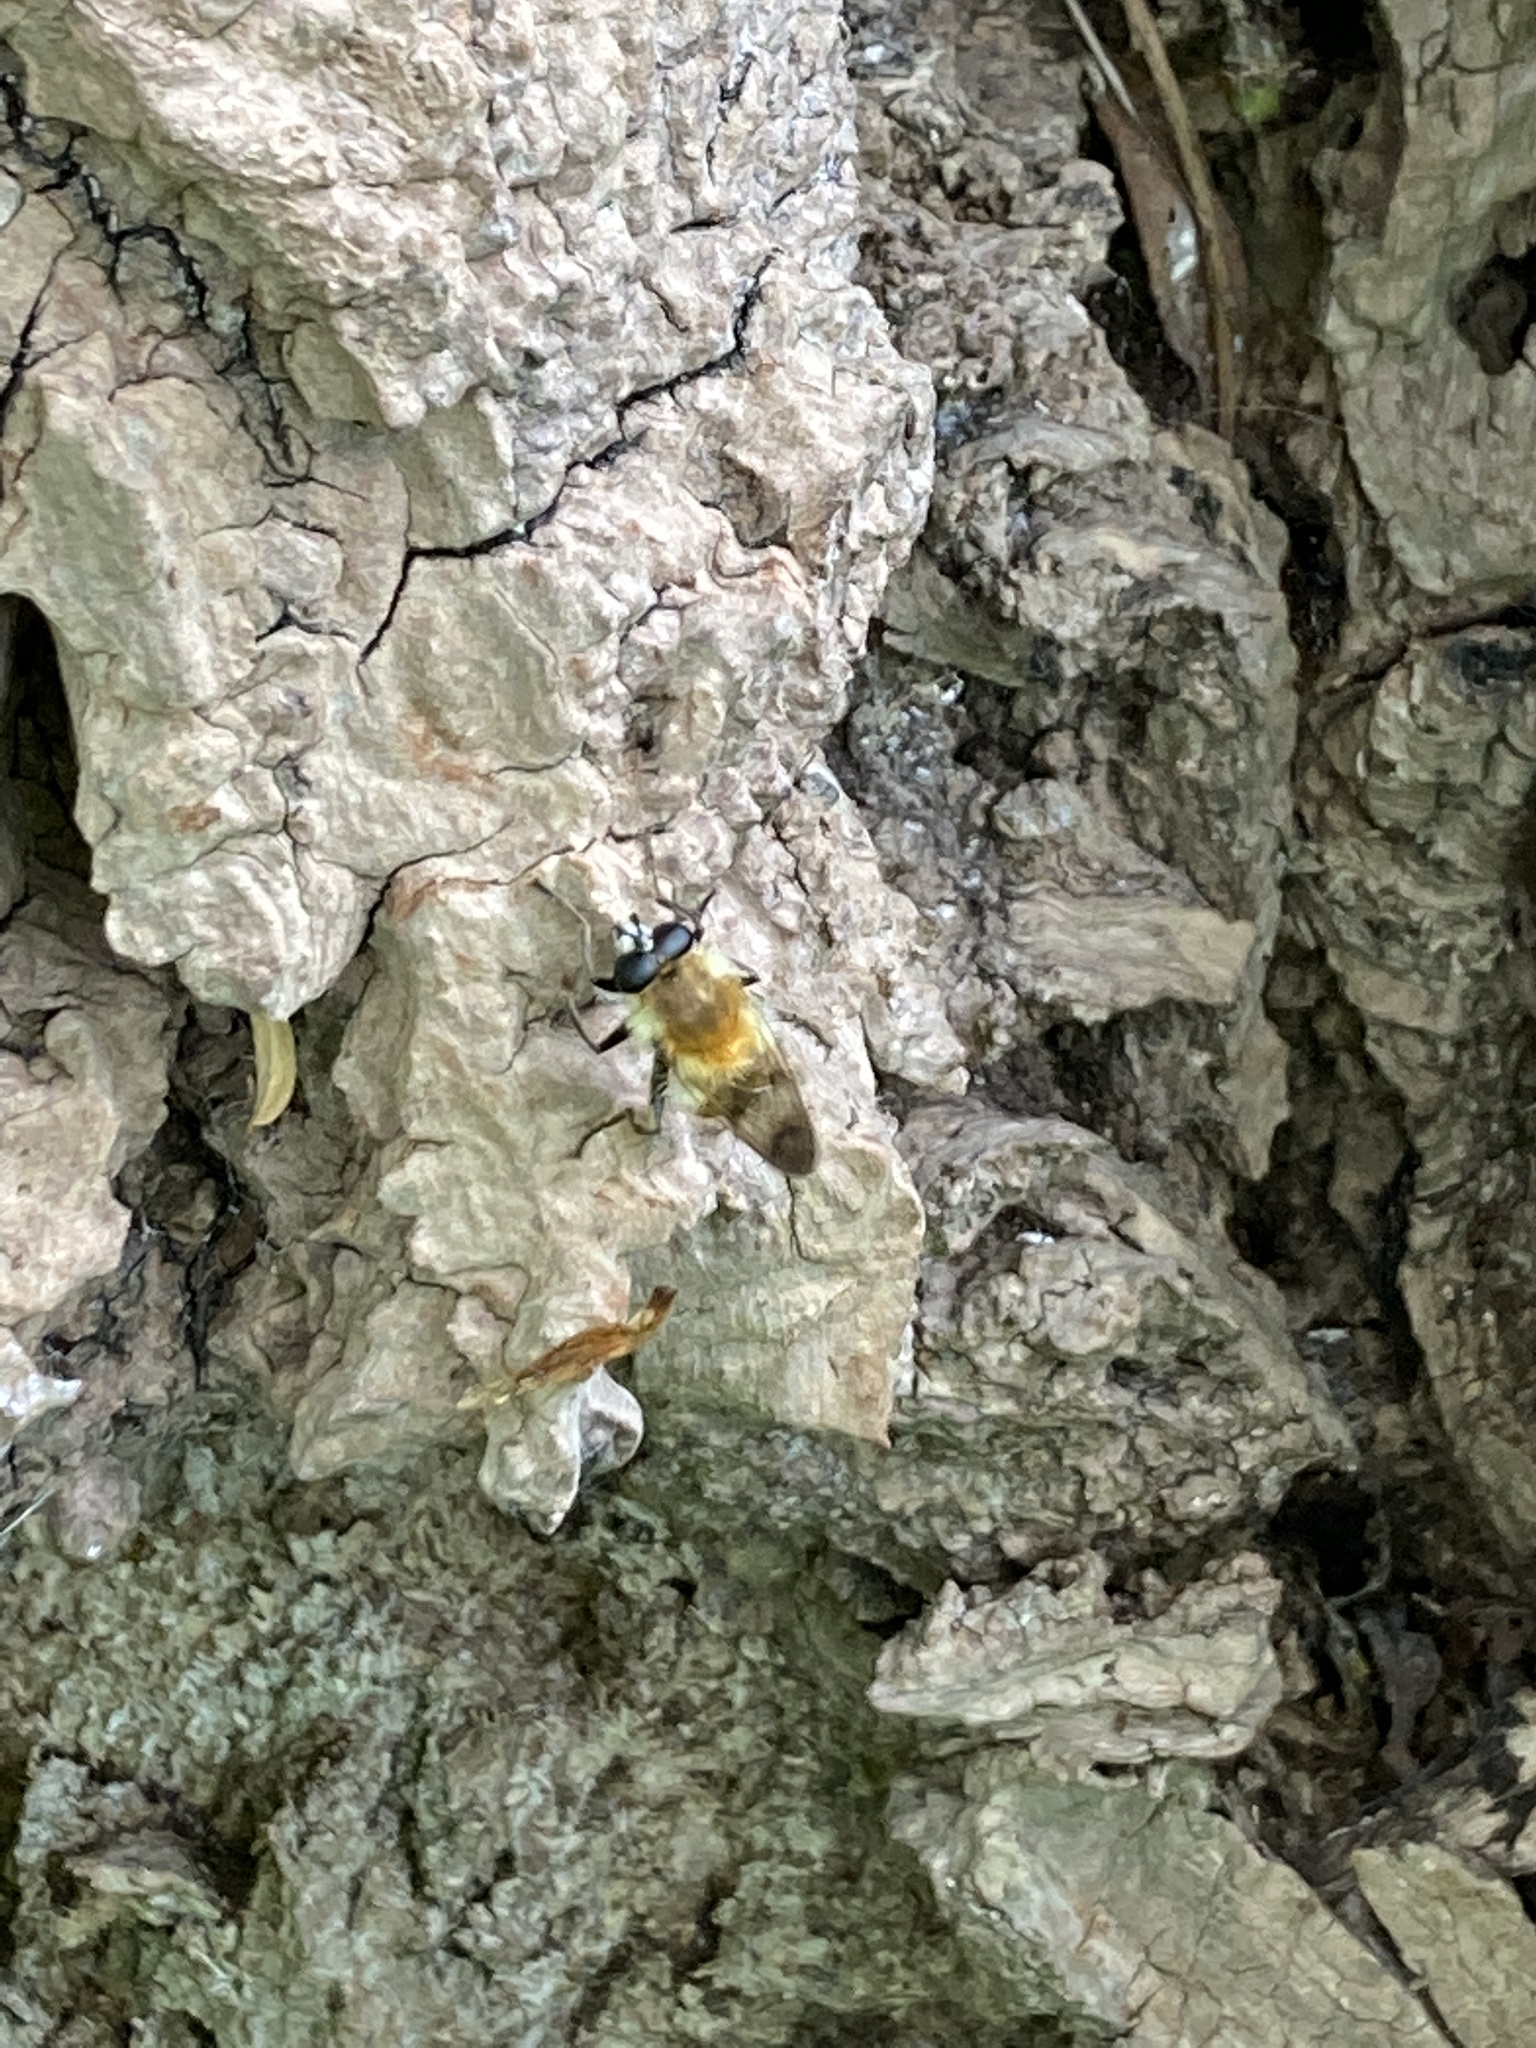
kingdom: Animalia
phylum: Arthropoda
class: Insecta
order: Diptera
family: Syrphidae
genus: Criorhina
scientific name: Criorhina floccosa
